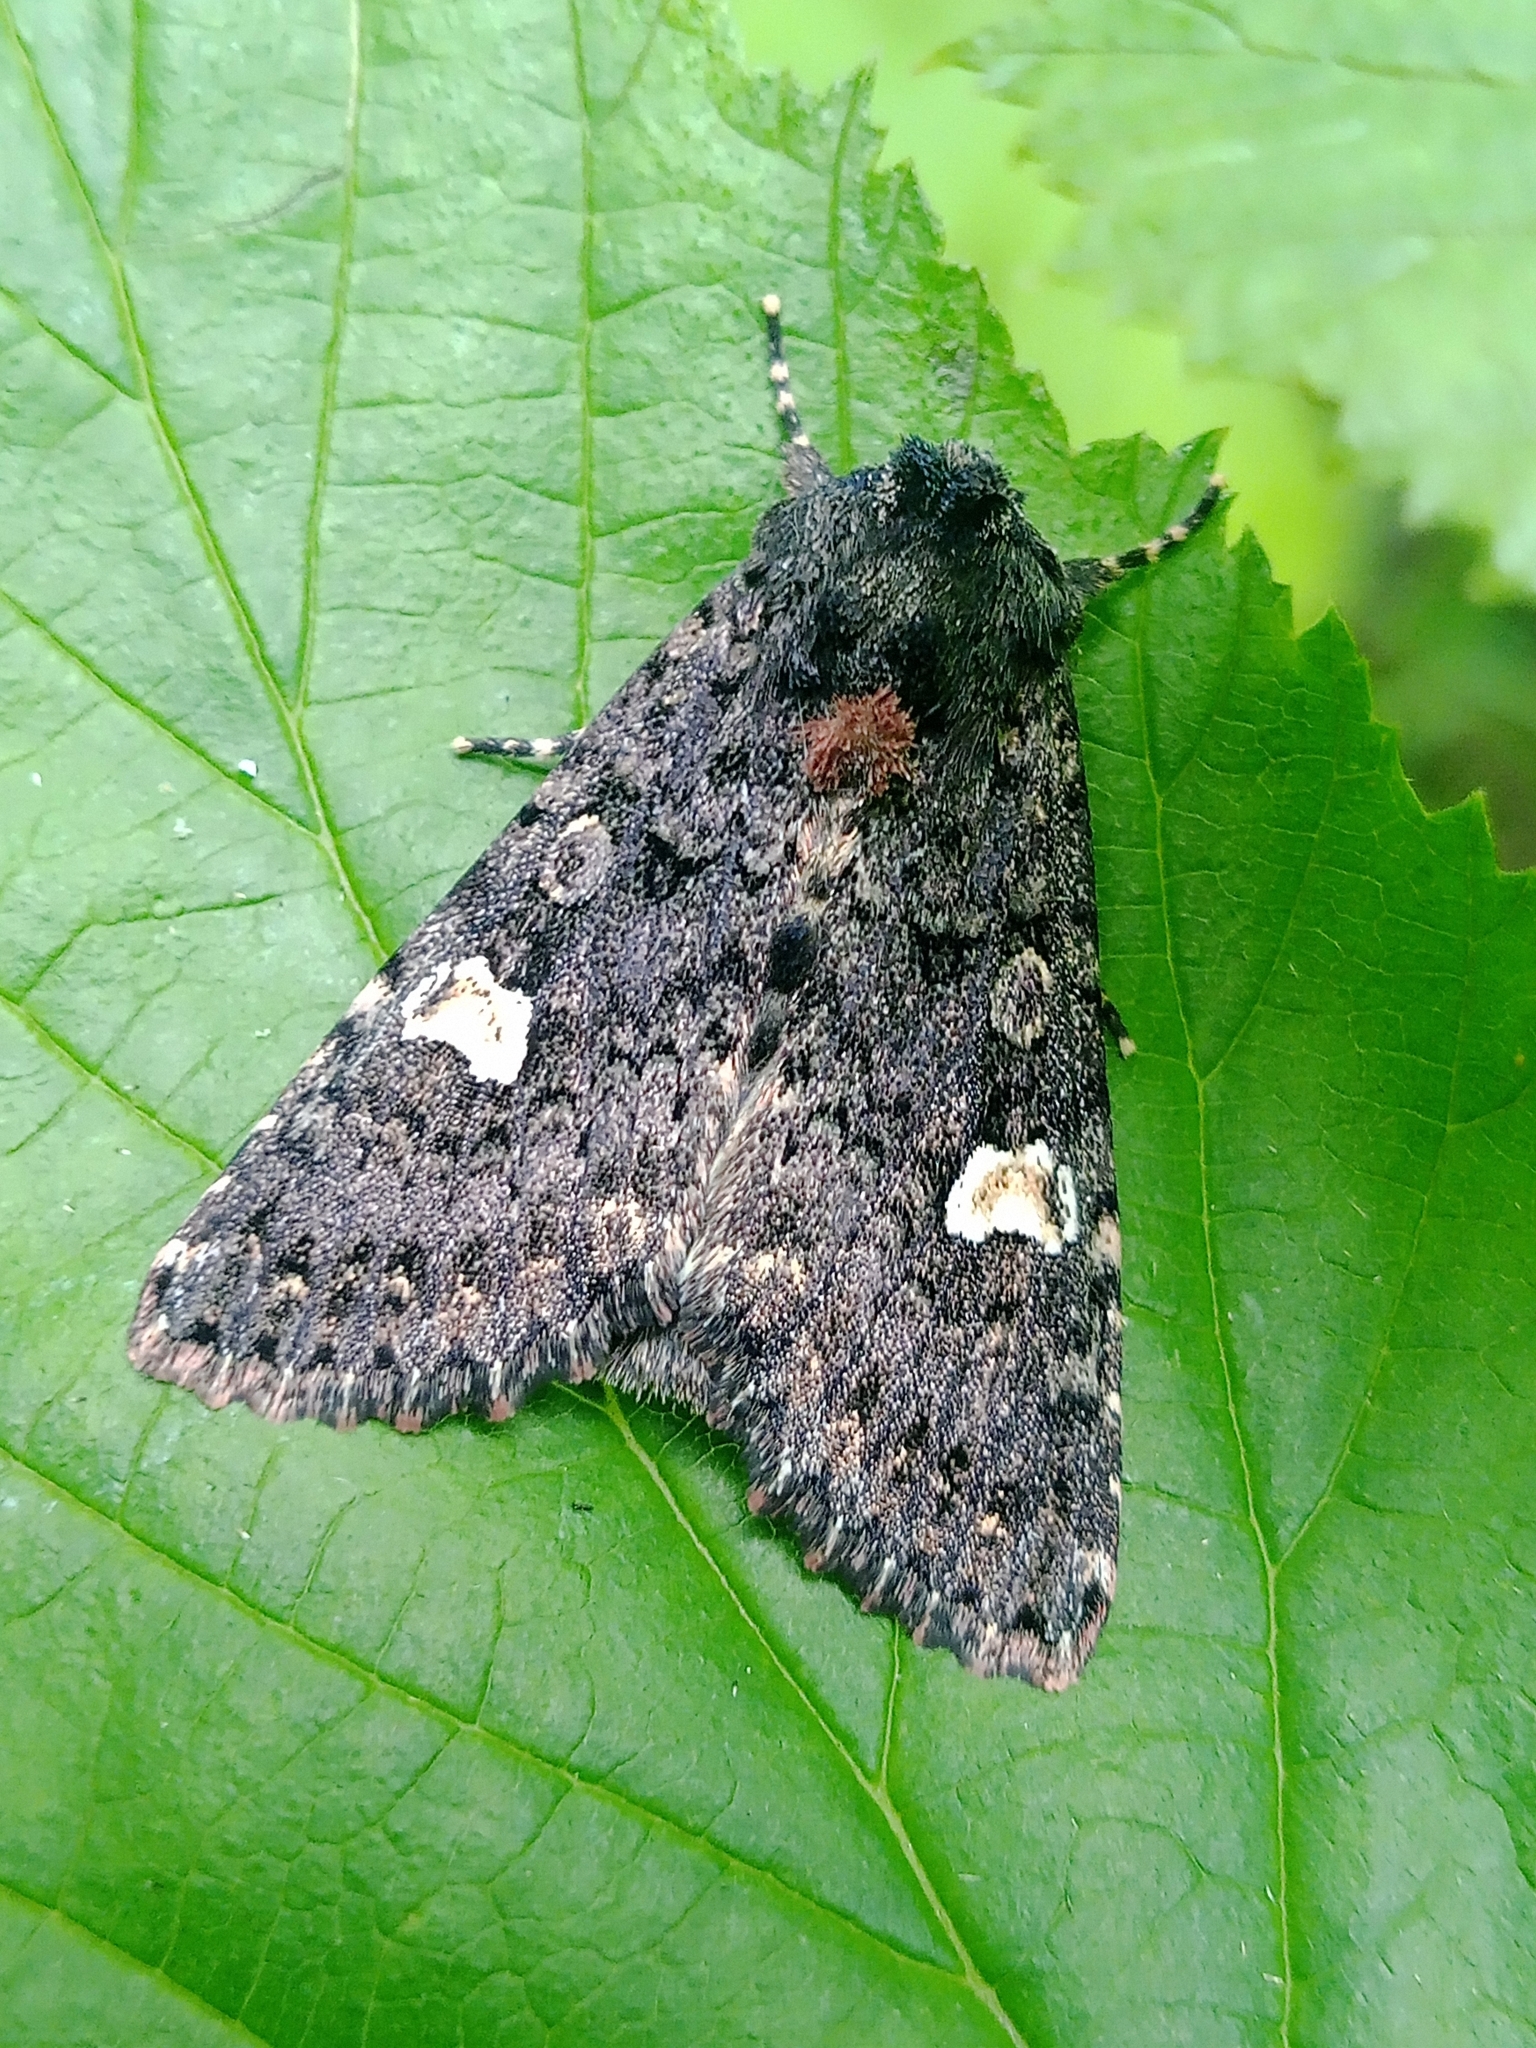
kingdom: Animalia
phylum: Arthropoda
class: Insecta
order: Lepidoptera
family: Noctuidae
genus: Melanchra
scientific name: Melanchra persicariae
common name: Dot moth
